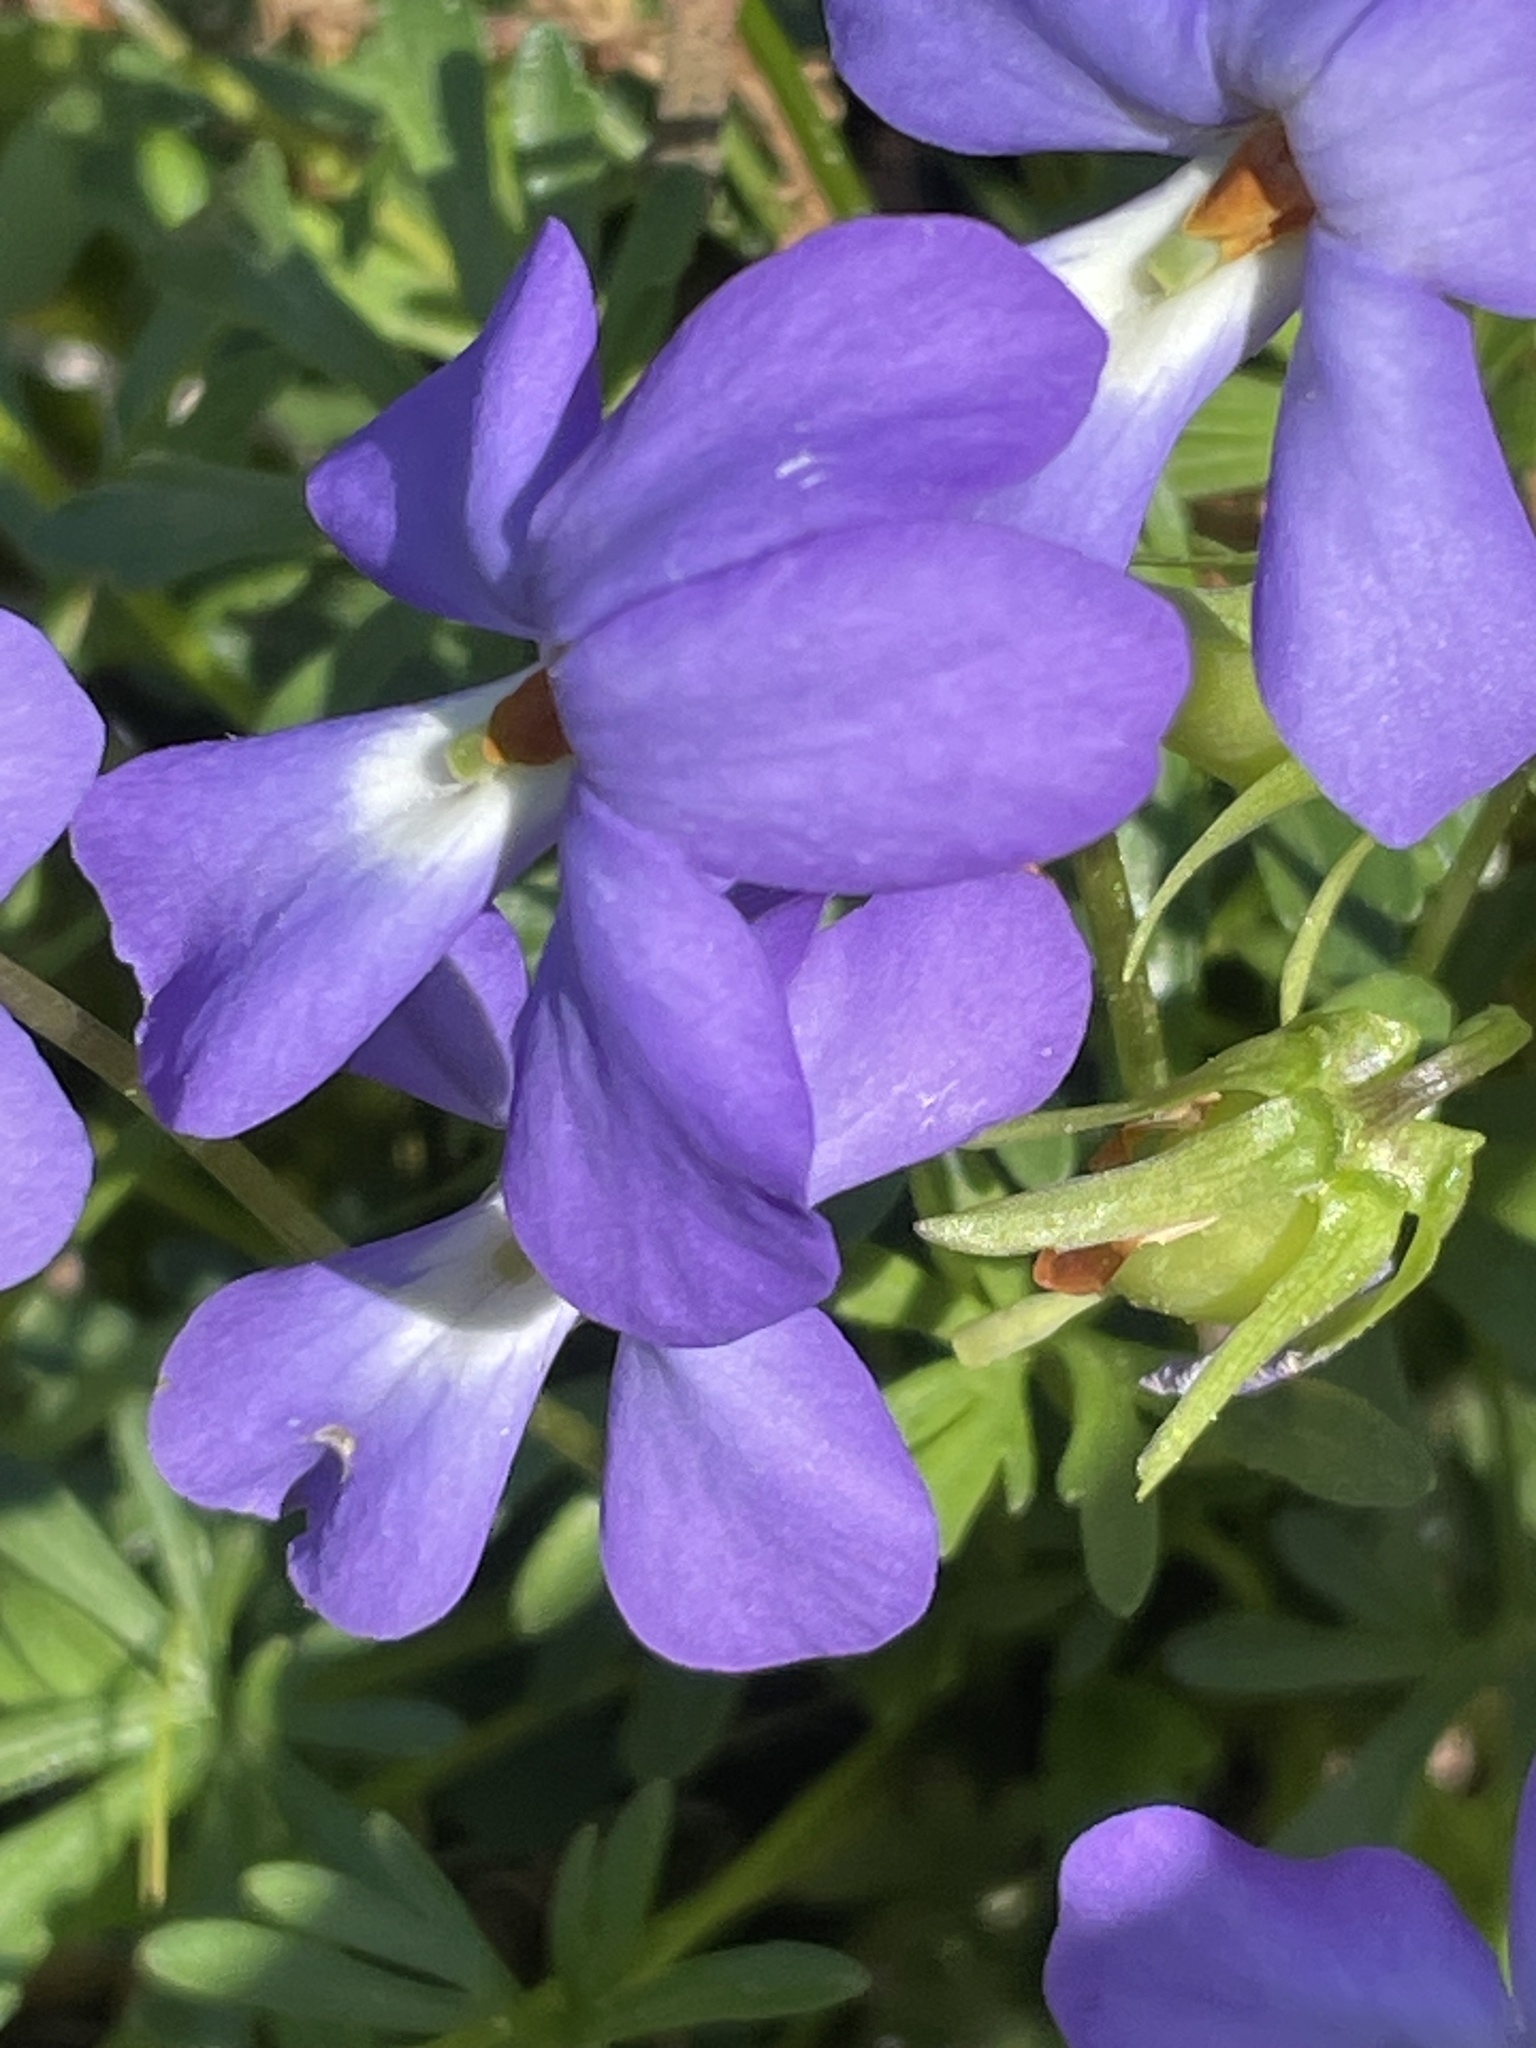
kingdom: Plantae
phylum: Tracheophyta
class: Magnoliopsida
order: Malpighiales
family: Violaceae
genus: Viola
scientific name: Viola pedata
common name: Pansy violet
